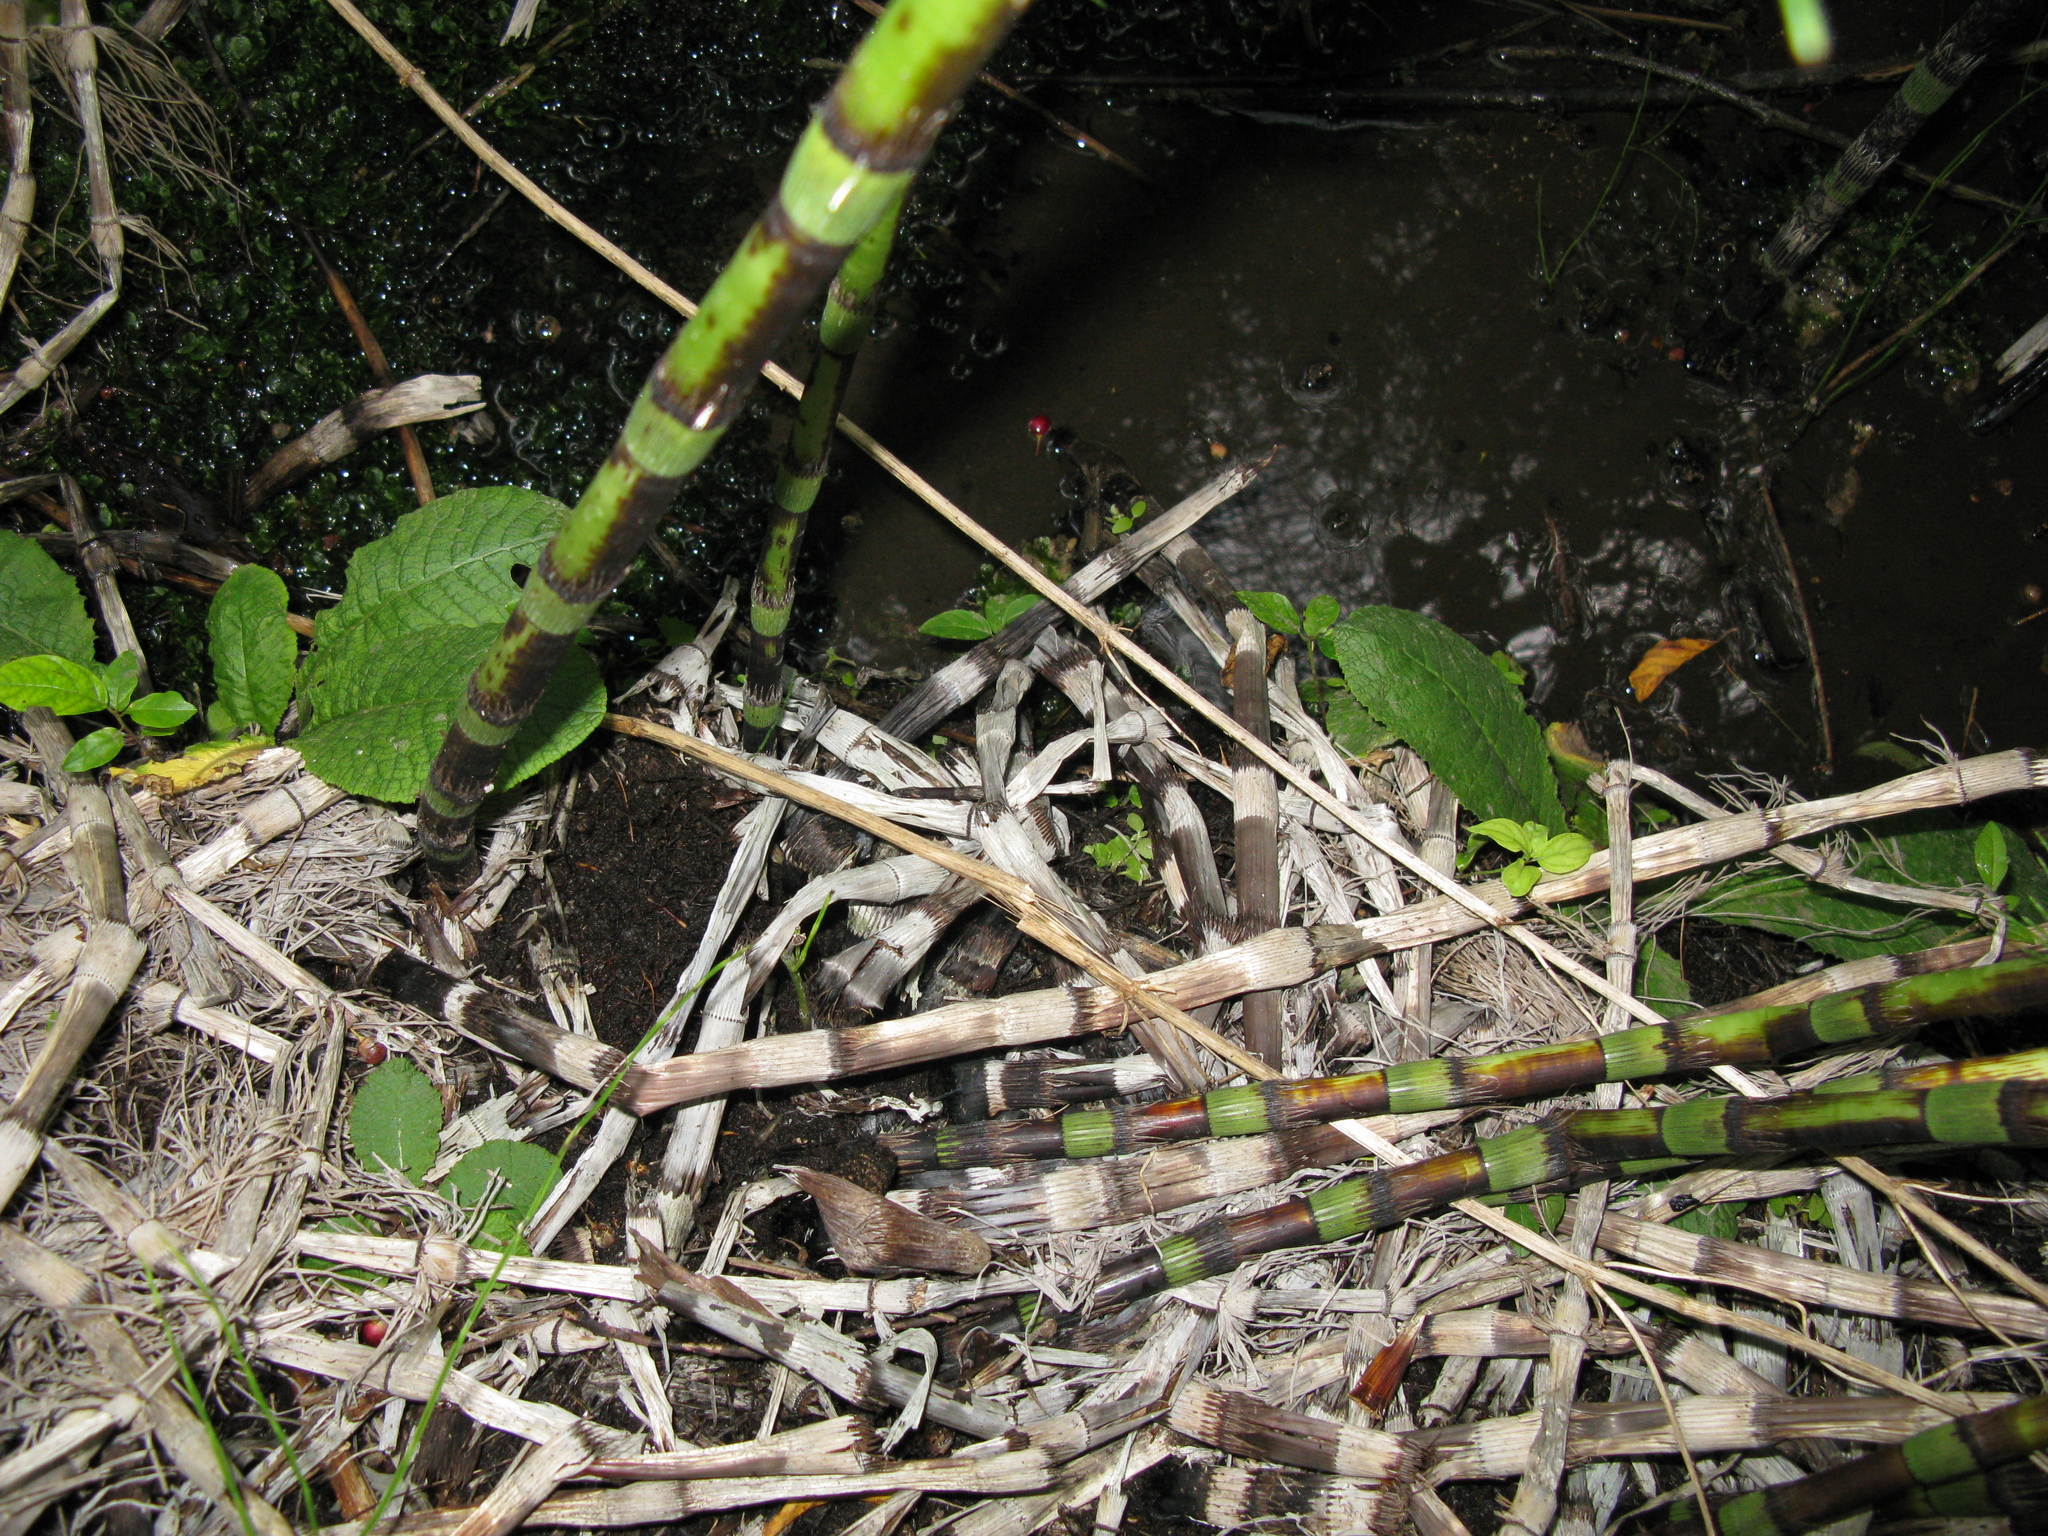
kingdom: Plantae
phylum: Tracheophyta
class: Magnoliopsida
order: Ericales
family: Primulaceae
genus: Primula
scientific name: Primula vulgaris
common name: Primrose
